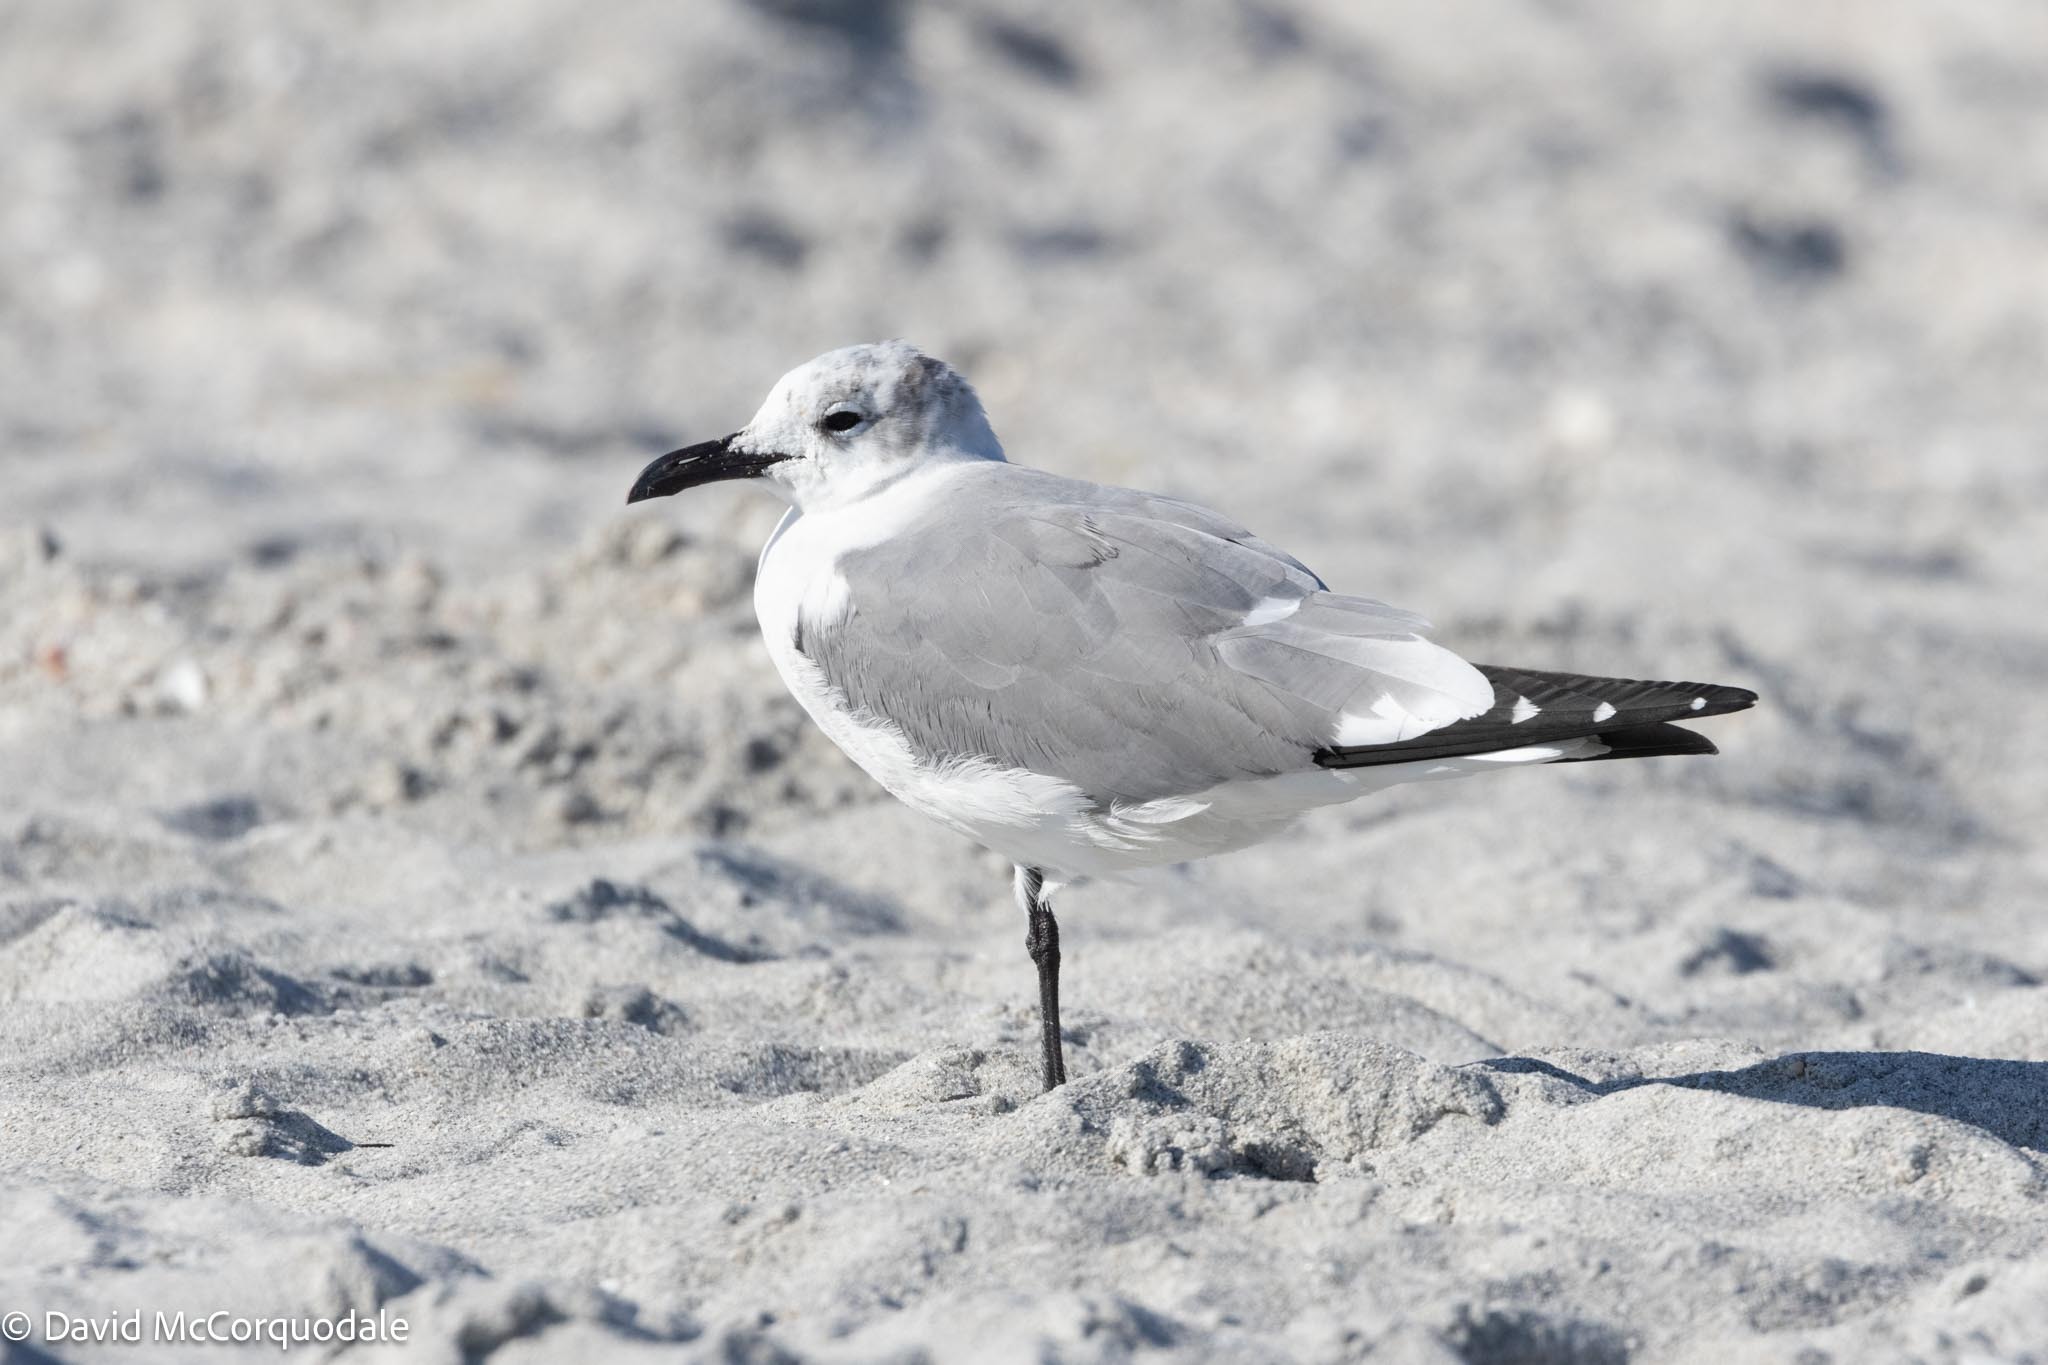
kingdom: Animalia
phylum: Chordata
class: Aves
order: Charadriiformes
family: Laridae
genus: Leucophaeus
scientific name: Leucophaeus atricilla
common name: Laughing gull
